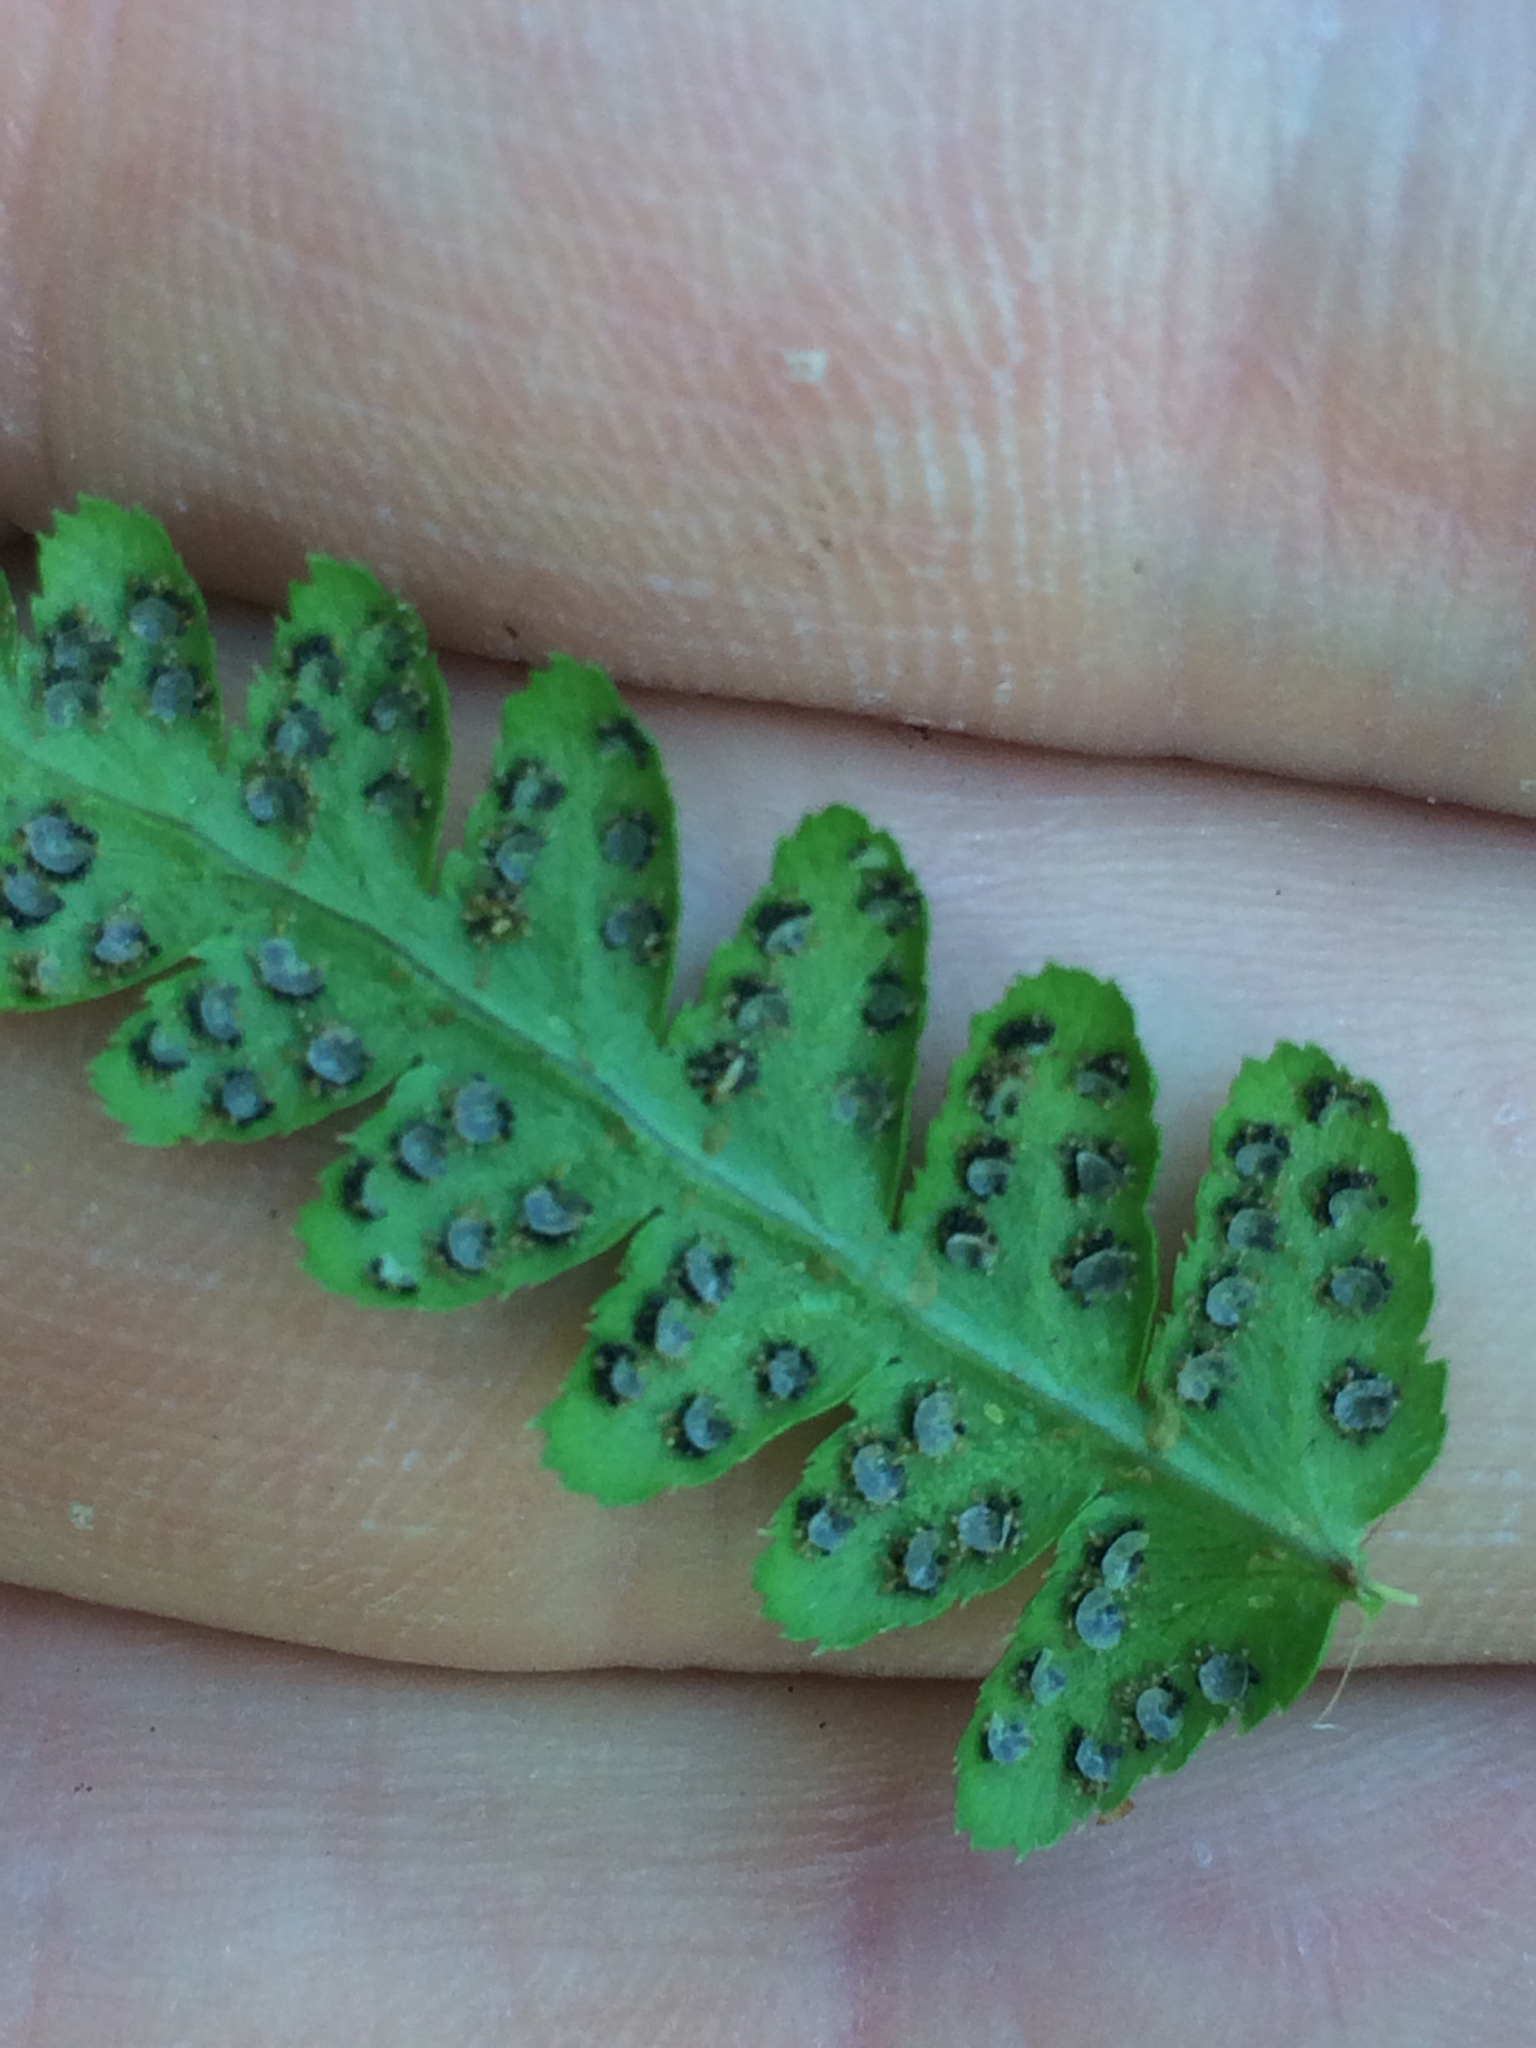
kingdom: Plantae
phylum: Tracheophyta
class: Polypodiopsida
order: Polypodiales
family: Dryopteridaceae
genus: Dryopteris
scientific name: Dryopteris cristata
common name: Crested wood fern
